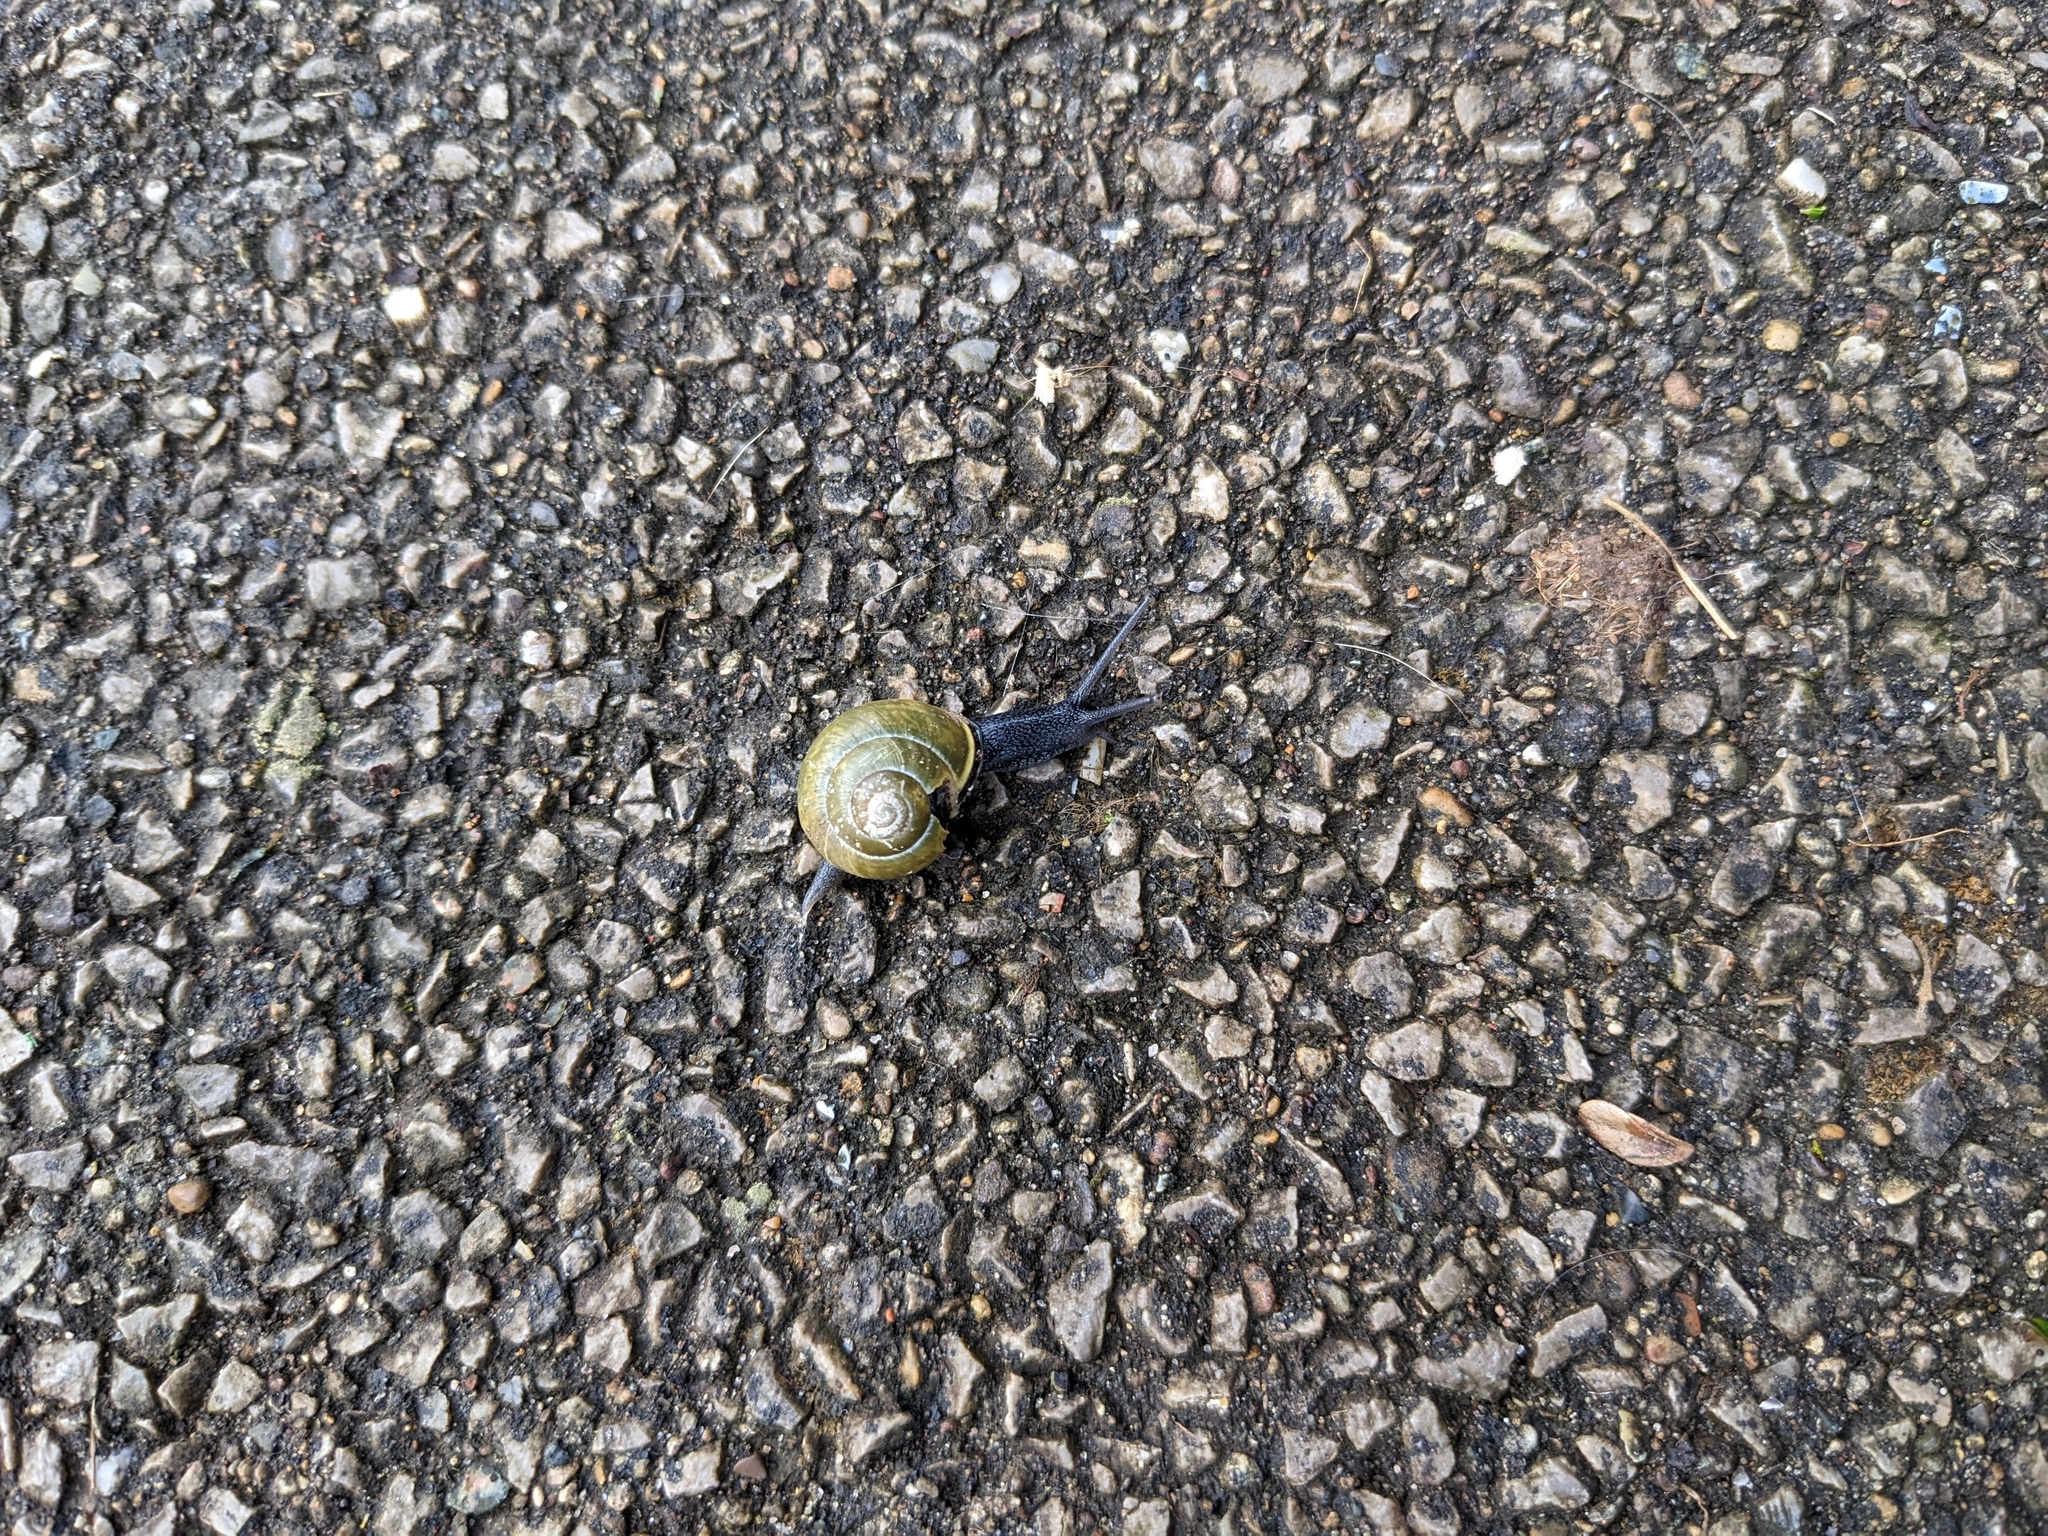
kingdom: Animalia
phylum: Mollusca
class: Gastropoda
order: Stylommatophora
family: Helicidae
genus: Cepaea
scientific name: Cepaea nemoralis
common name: Grovesnail
